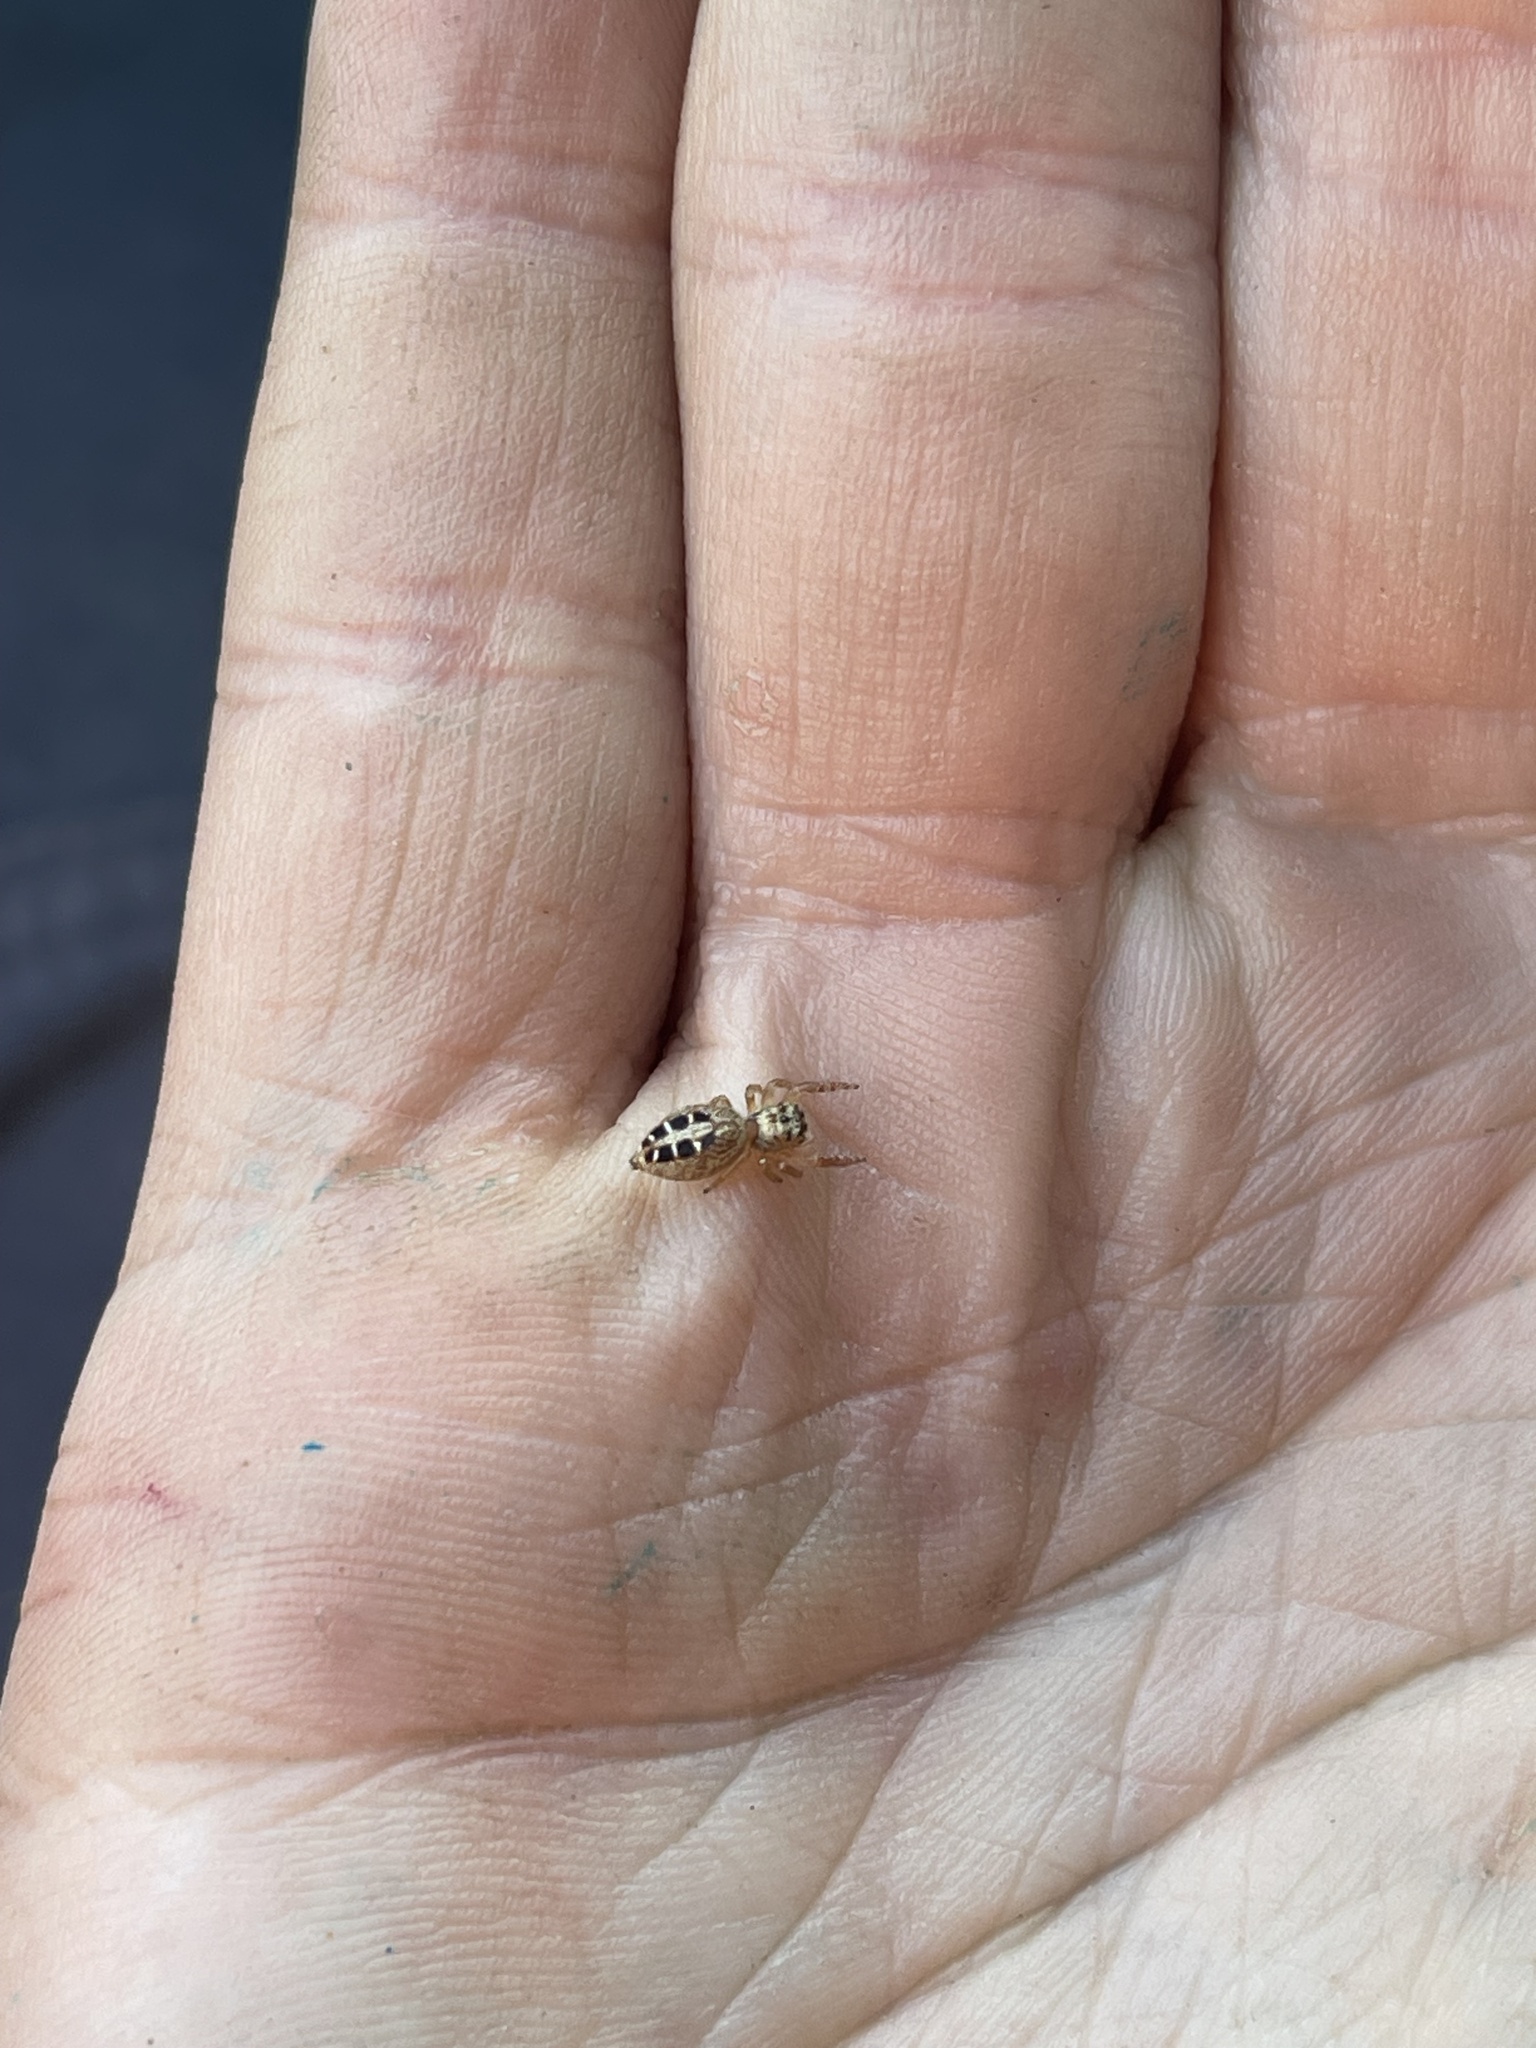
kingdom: Animalia
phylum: Arthropoda
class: Arachnida
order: Araneae
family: Salticidae
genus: Opisthoncus
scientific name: Opisthoncus sexmaculatus
